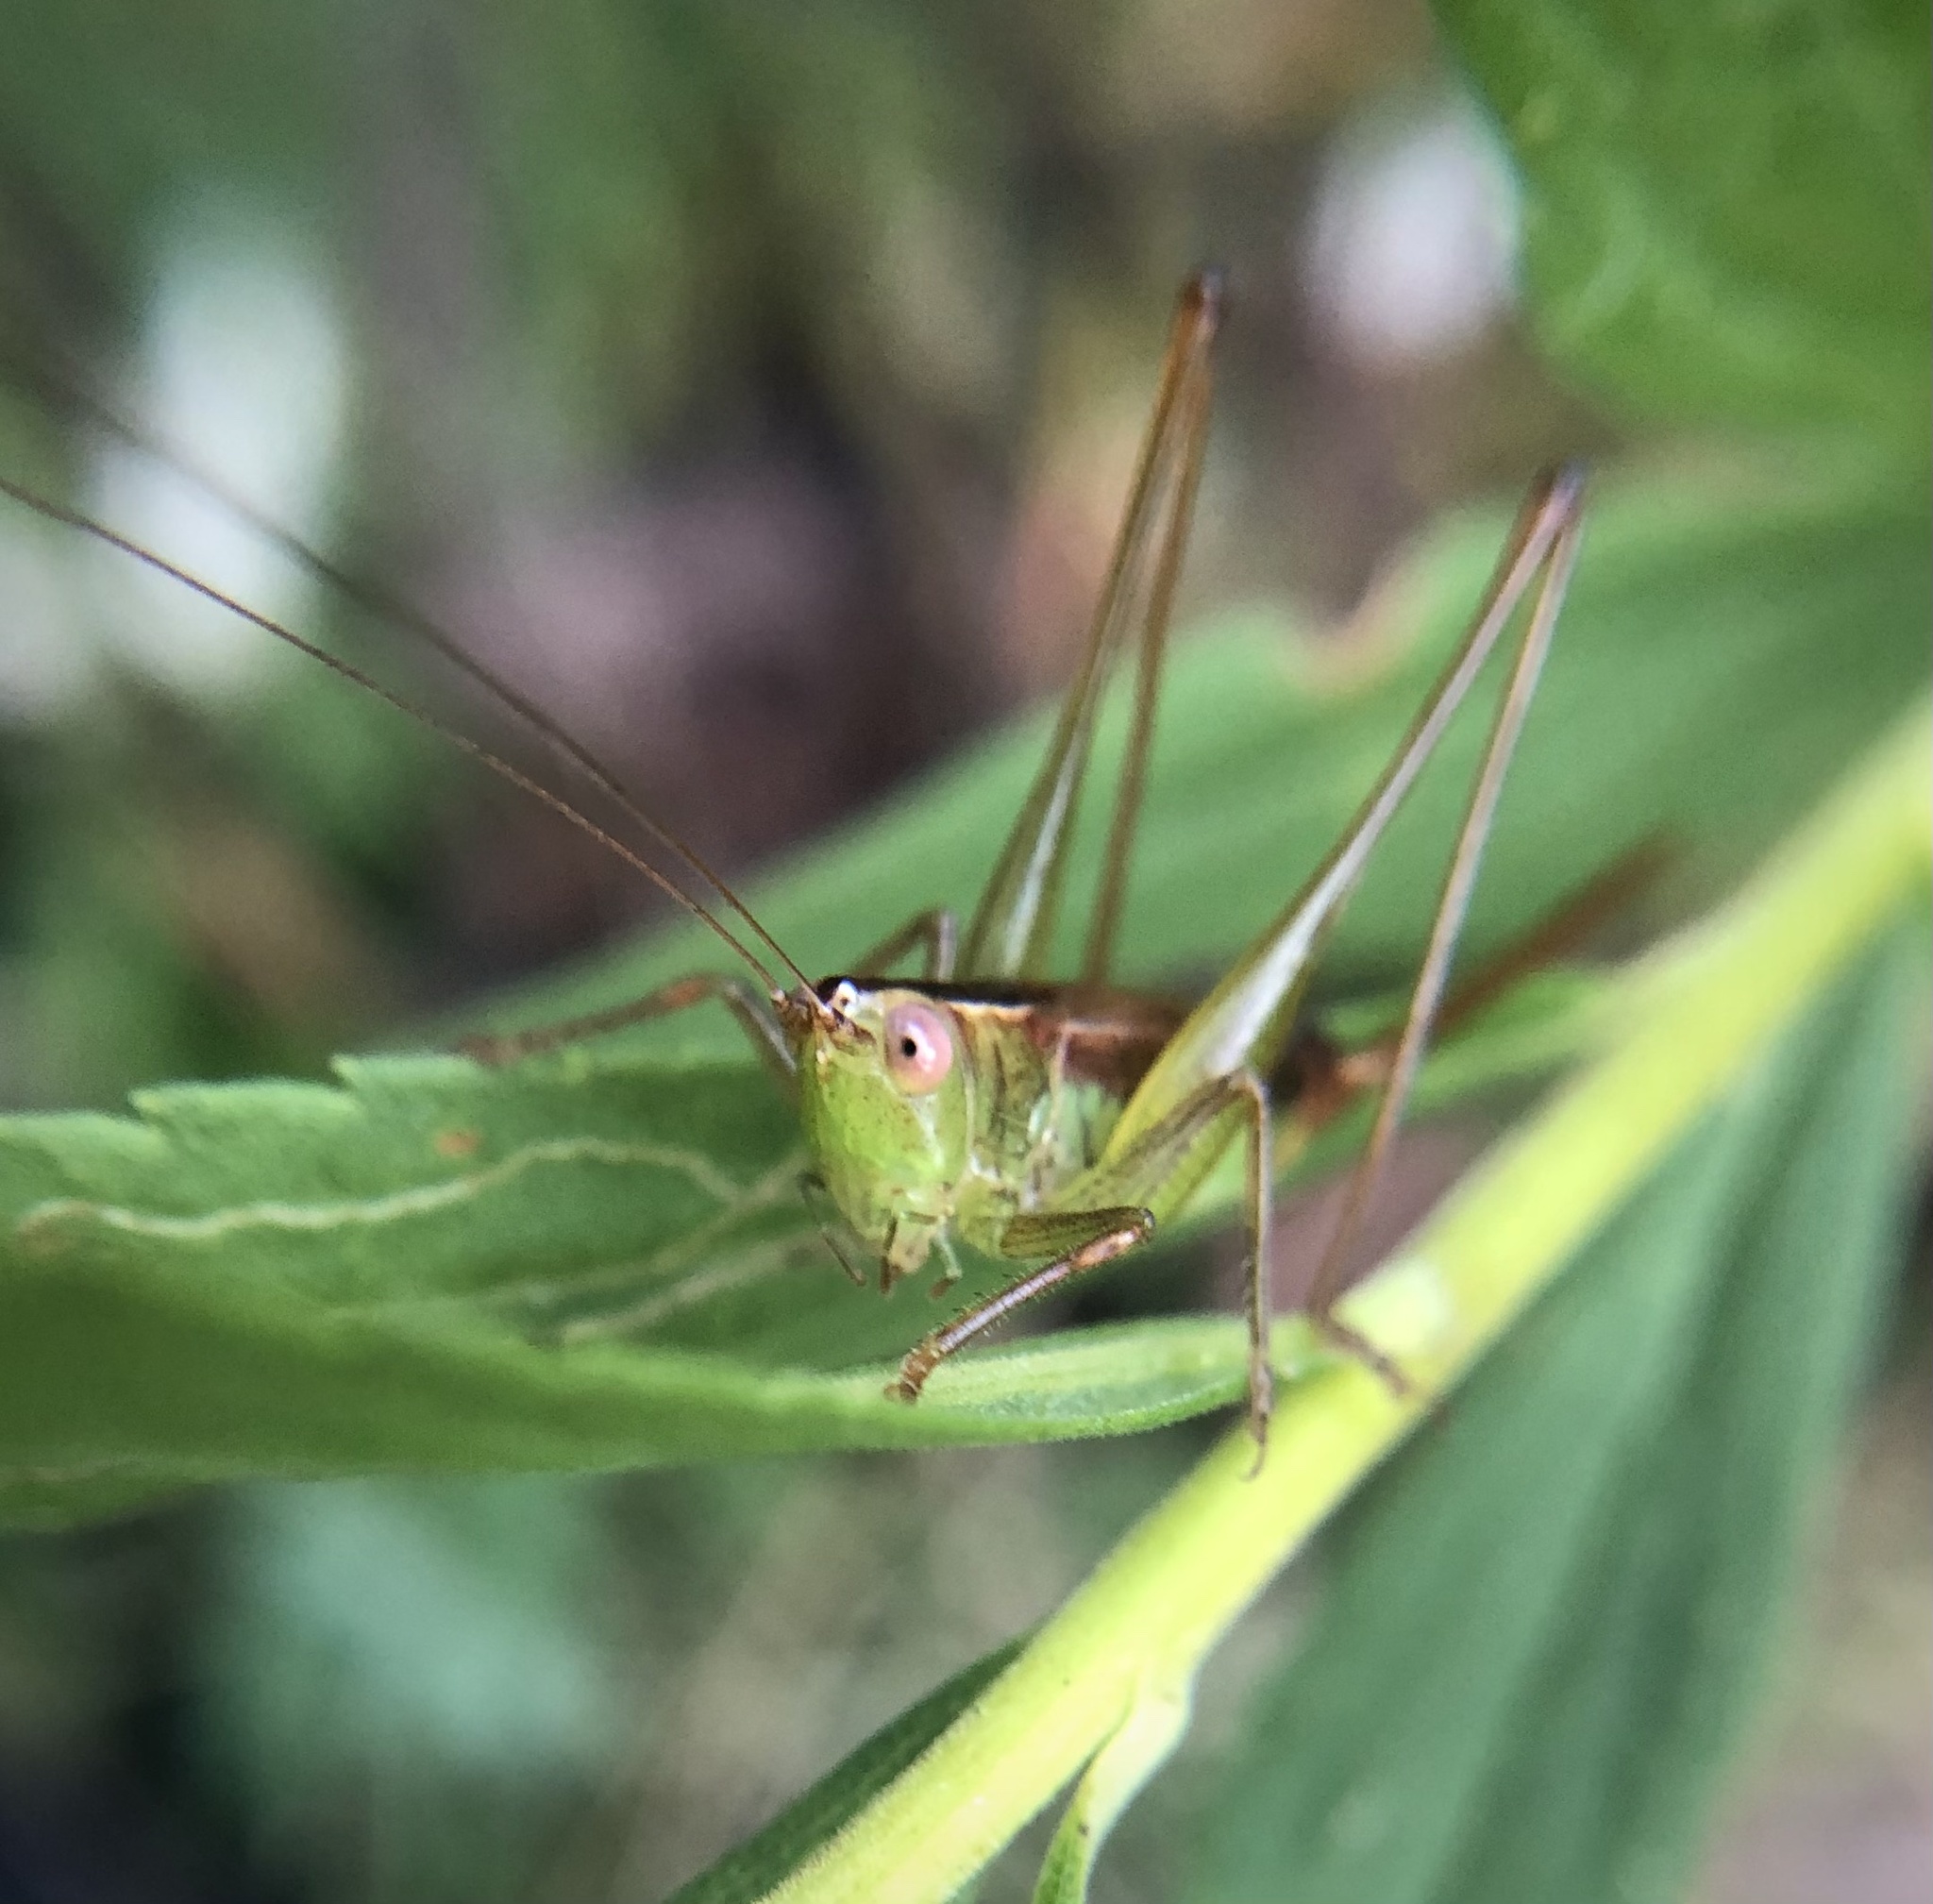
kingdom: Animalia
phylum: Arthropoda
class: Insecta
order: Orthoptera
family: Tettigoniidae
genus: Conocephalus
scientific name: Conocephalus brevipennis
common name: Short-winged meadow katydid
